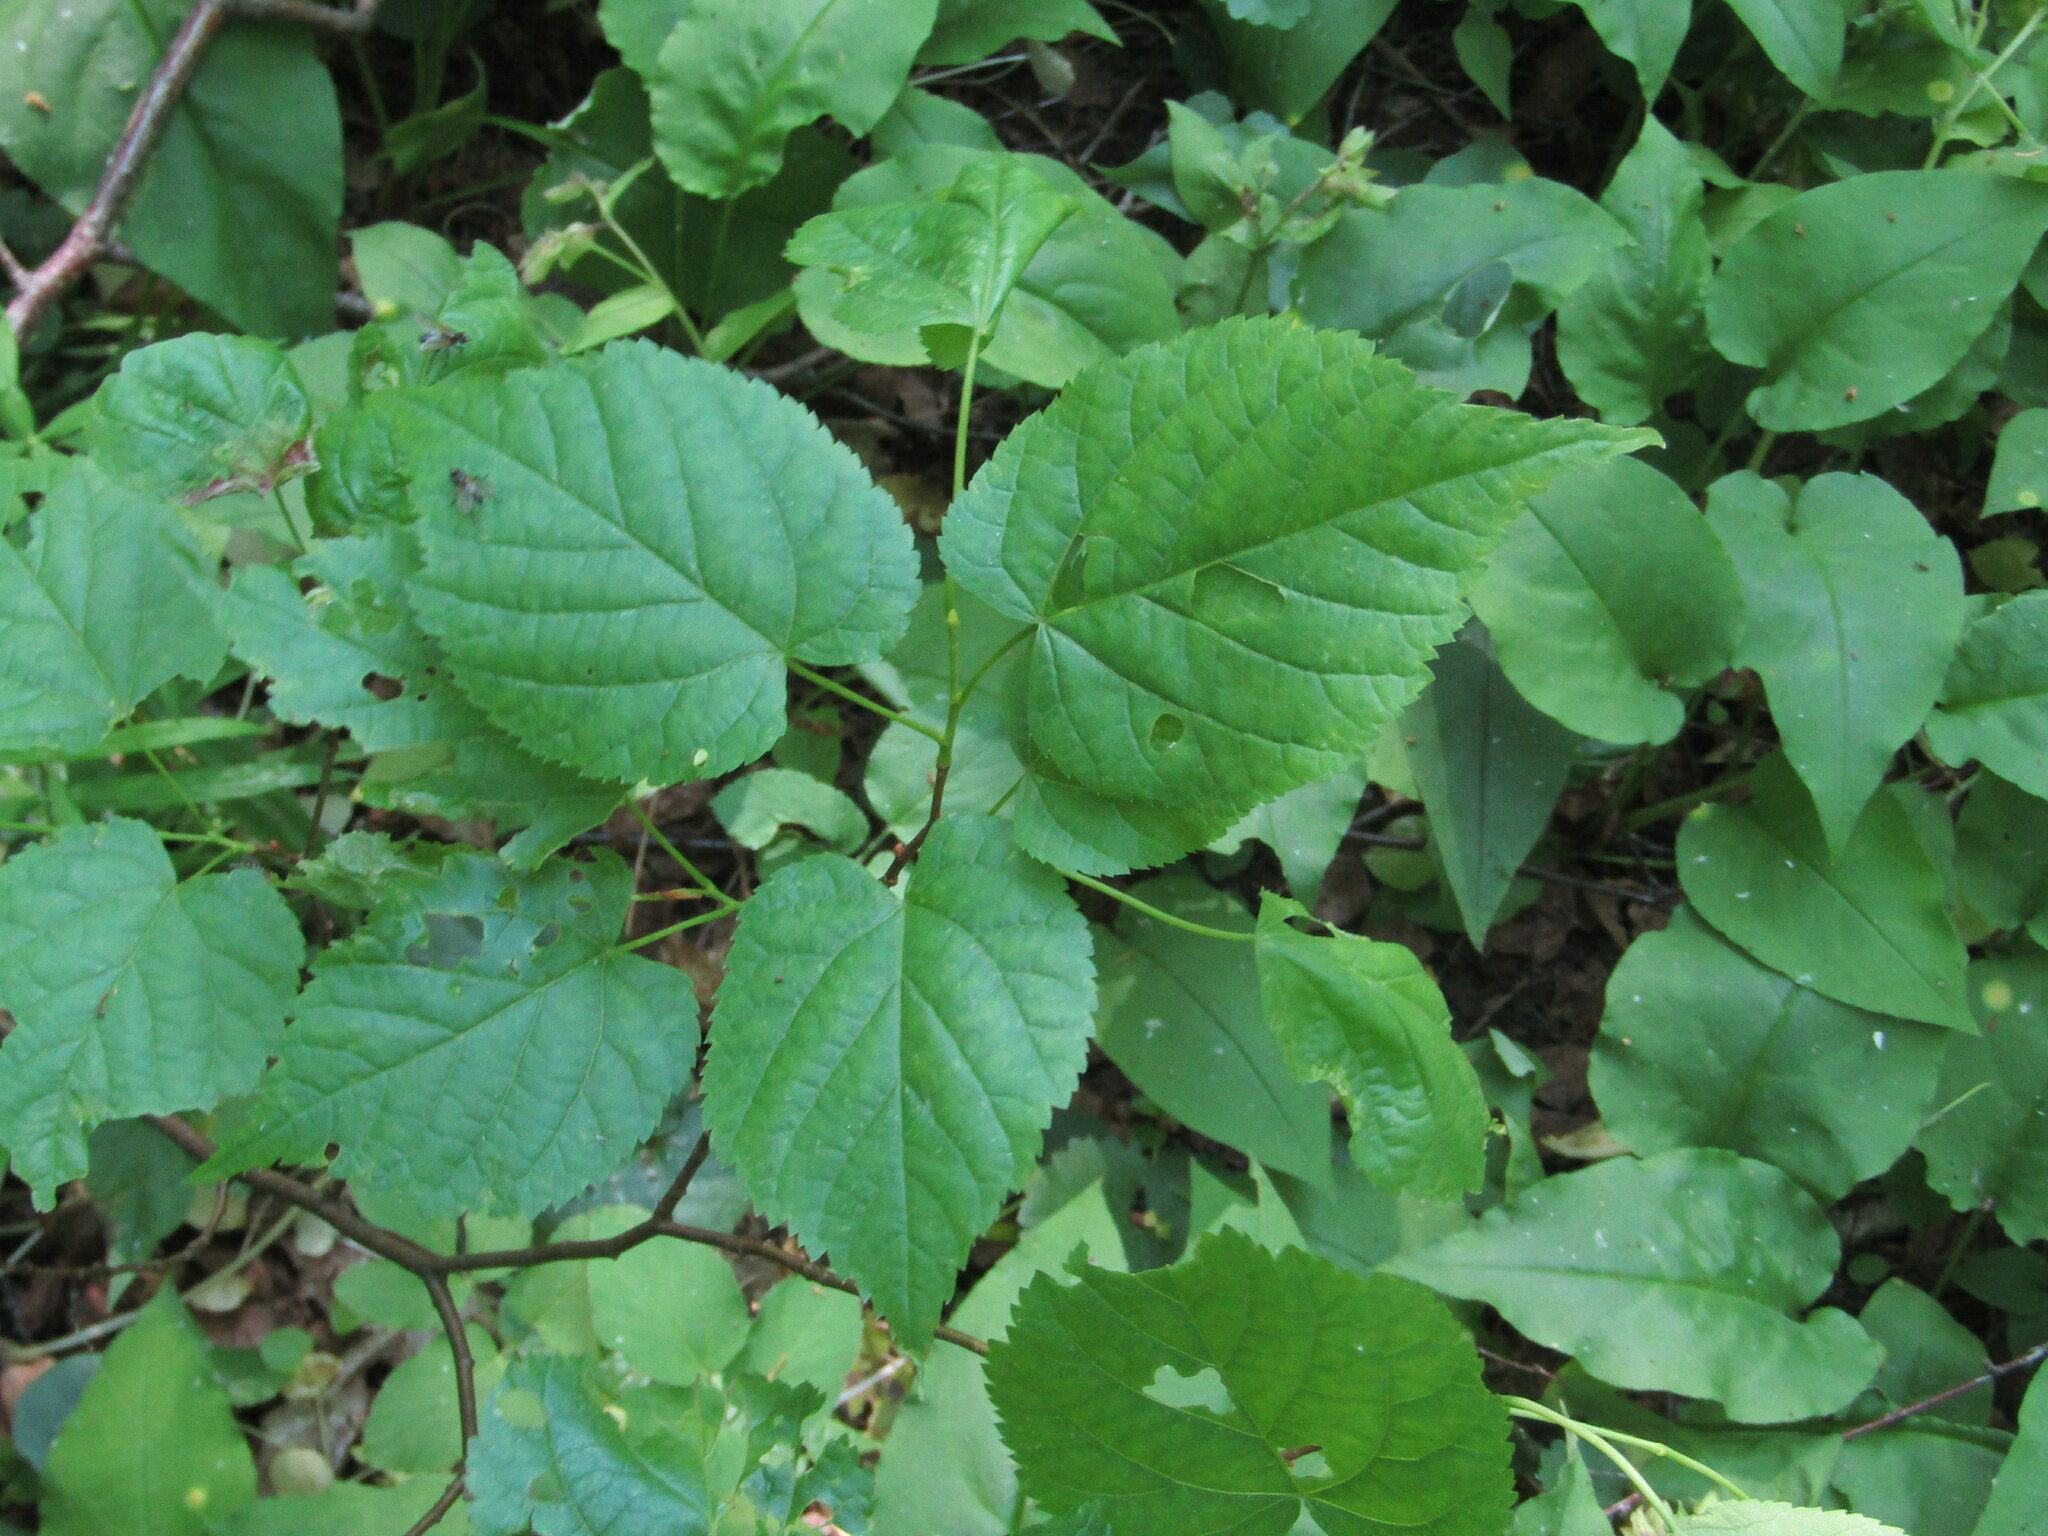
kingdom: Plantae
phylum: Tracheophyta
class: Magnoliopsida
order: Malvales
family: Malvaceae
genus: Tilia
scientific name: Tilia cordata
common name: Small-leaved lime
